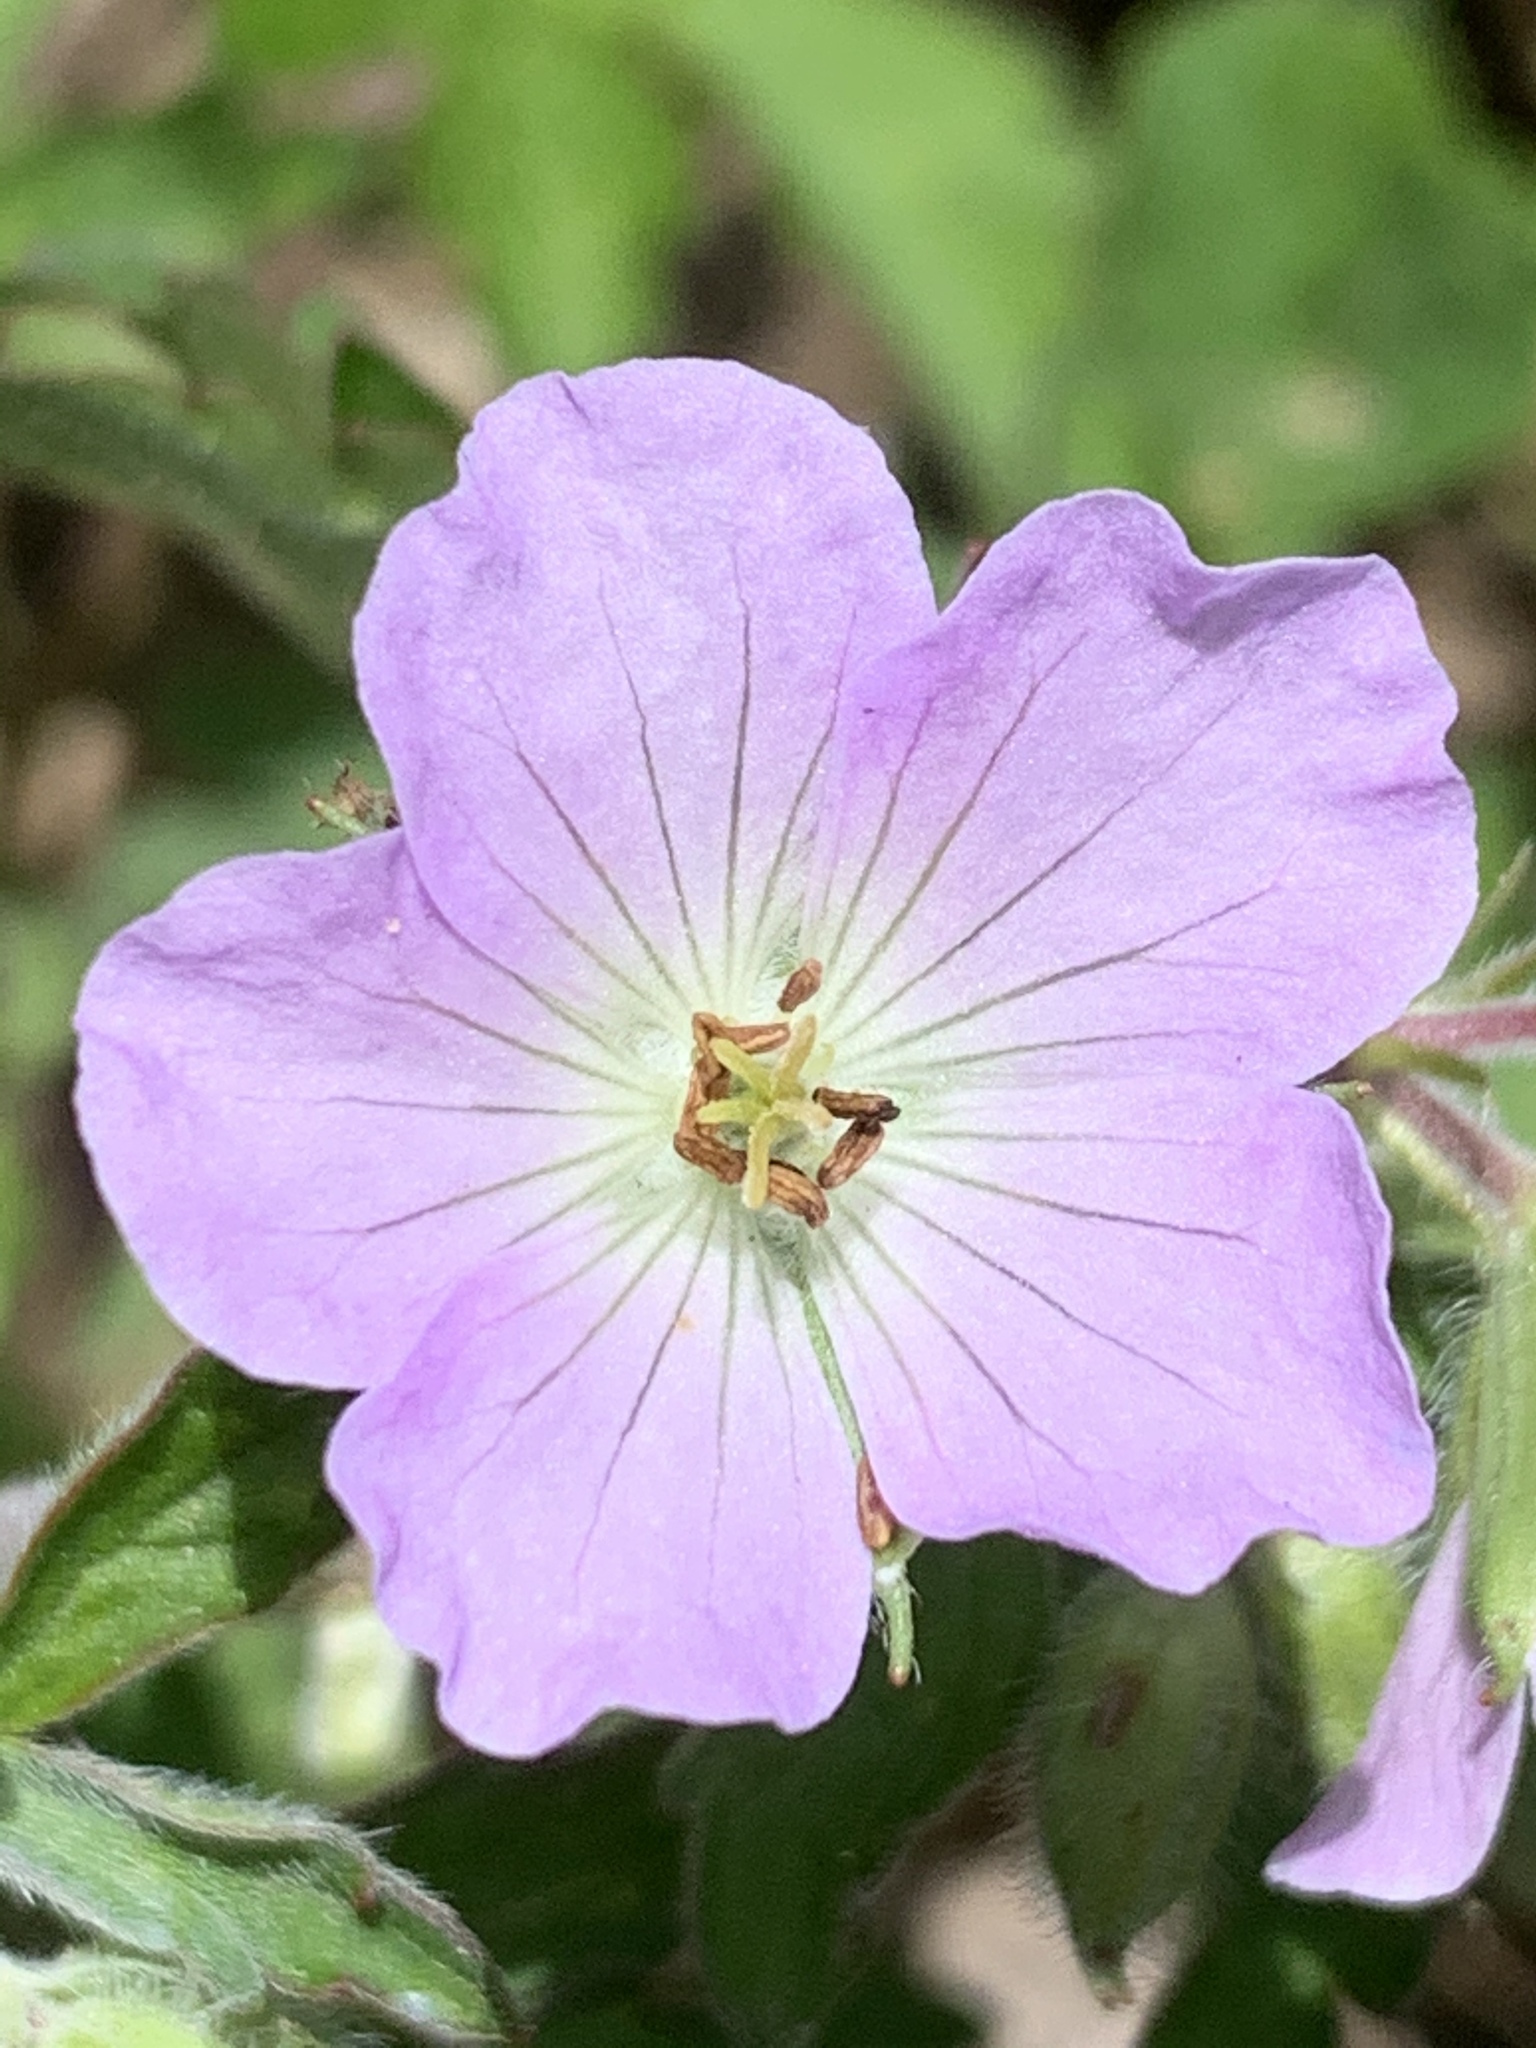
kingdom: Plantae
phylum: Tracheophyta
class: Magnoliopsida
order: Geraniales
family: Geraniaceae
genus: Geranium
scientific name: Geranium maculatum
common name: Spotted geranium
